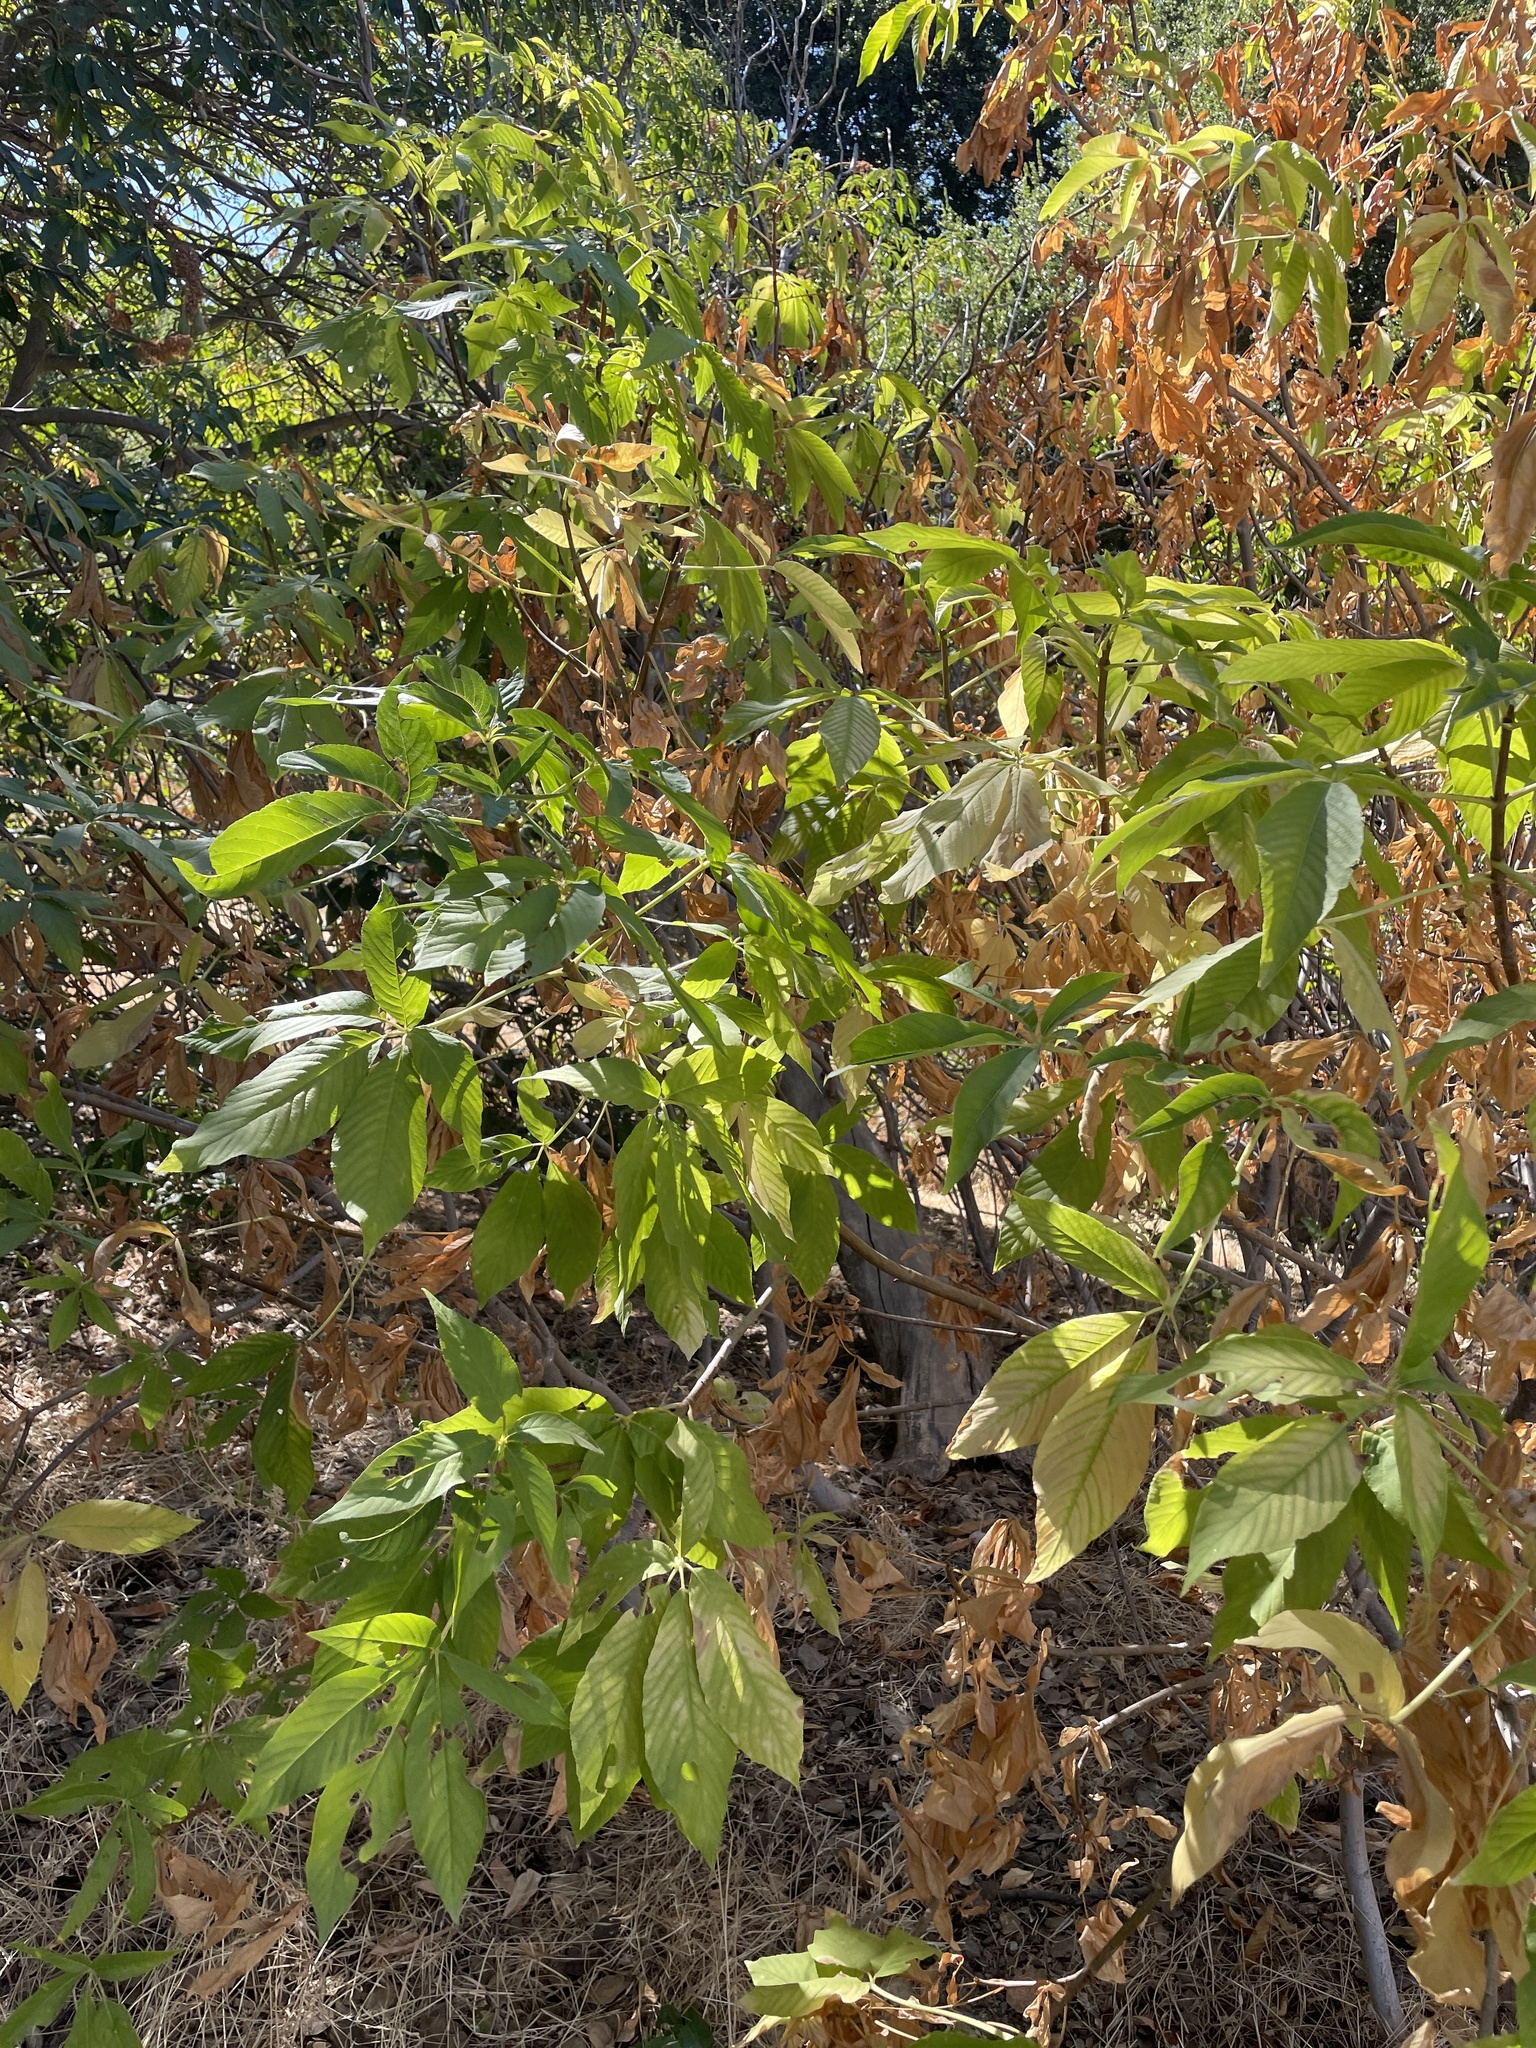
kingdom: Plantae
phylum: Tracheophyta
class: Magnoliopsida
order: Sapindales
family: Sapindaceae
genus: Aesculus
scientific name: Aesculus californica
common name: California buckeye
